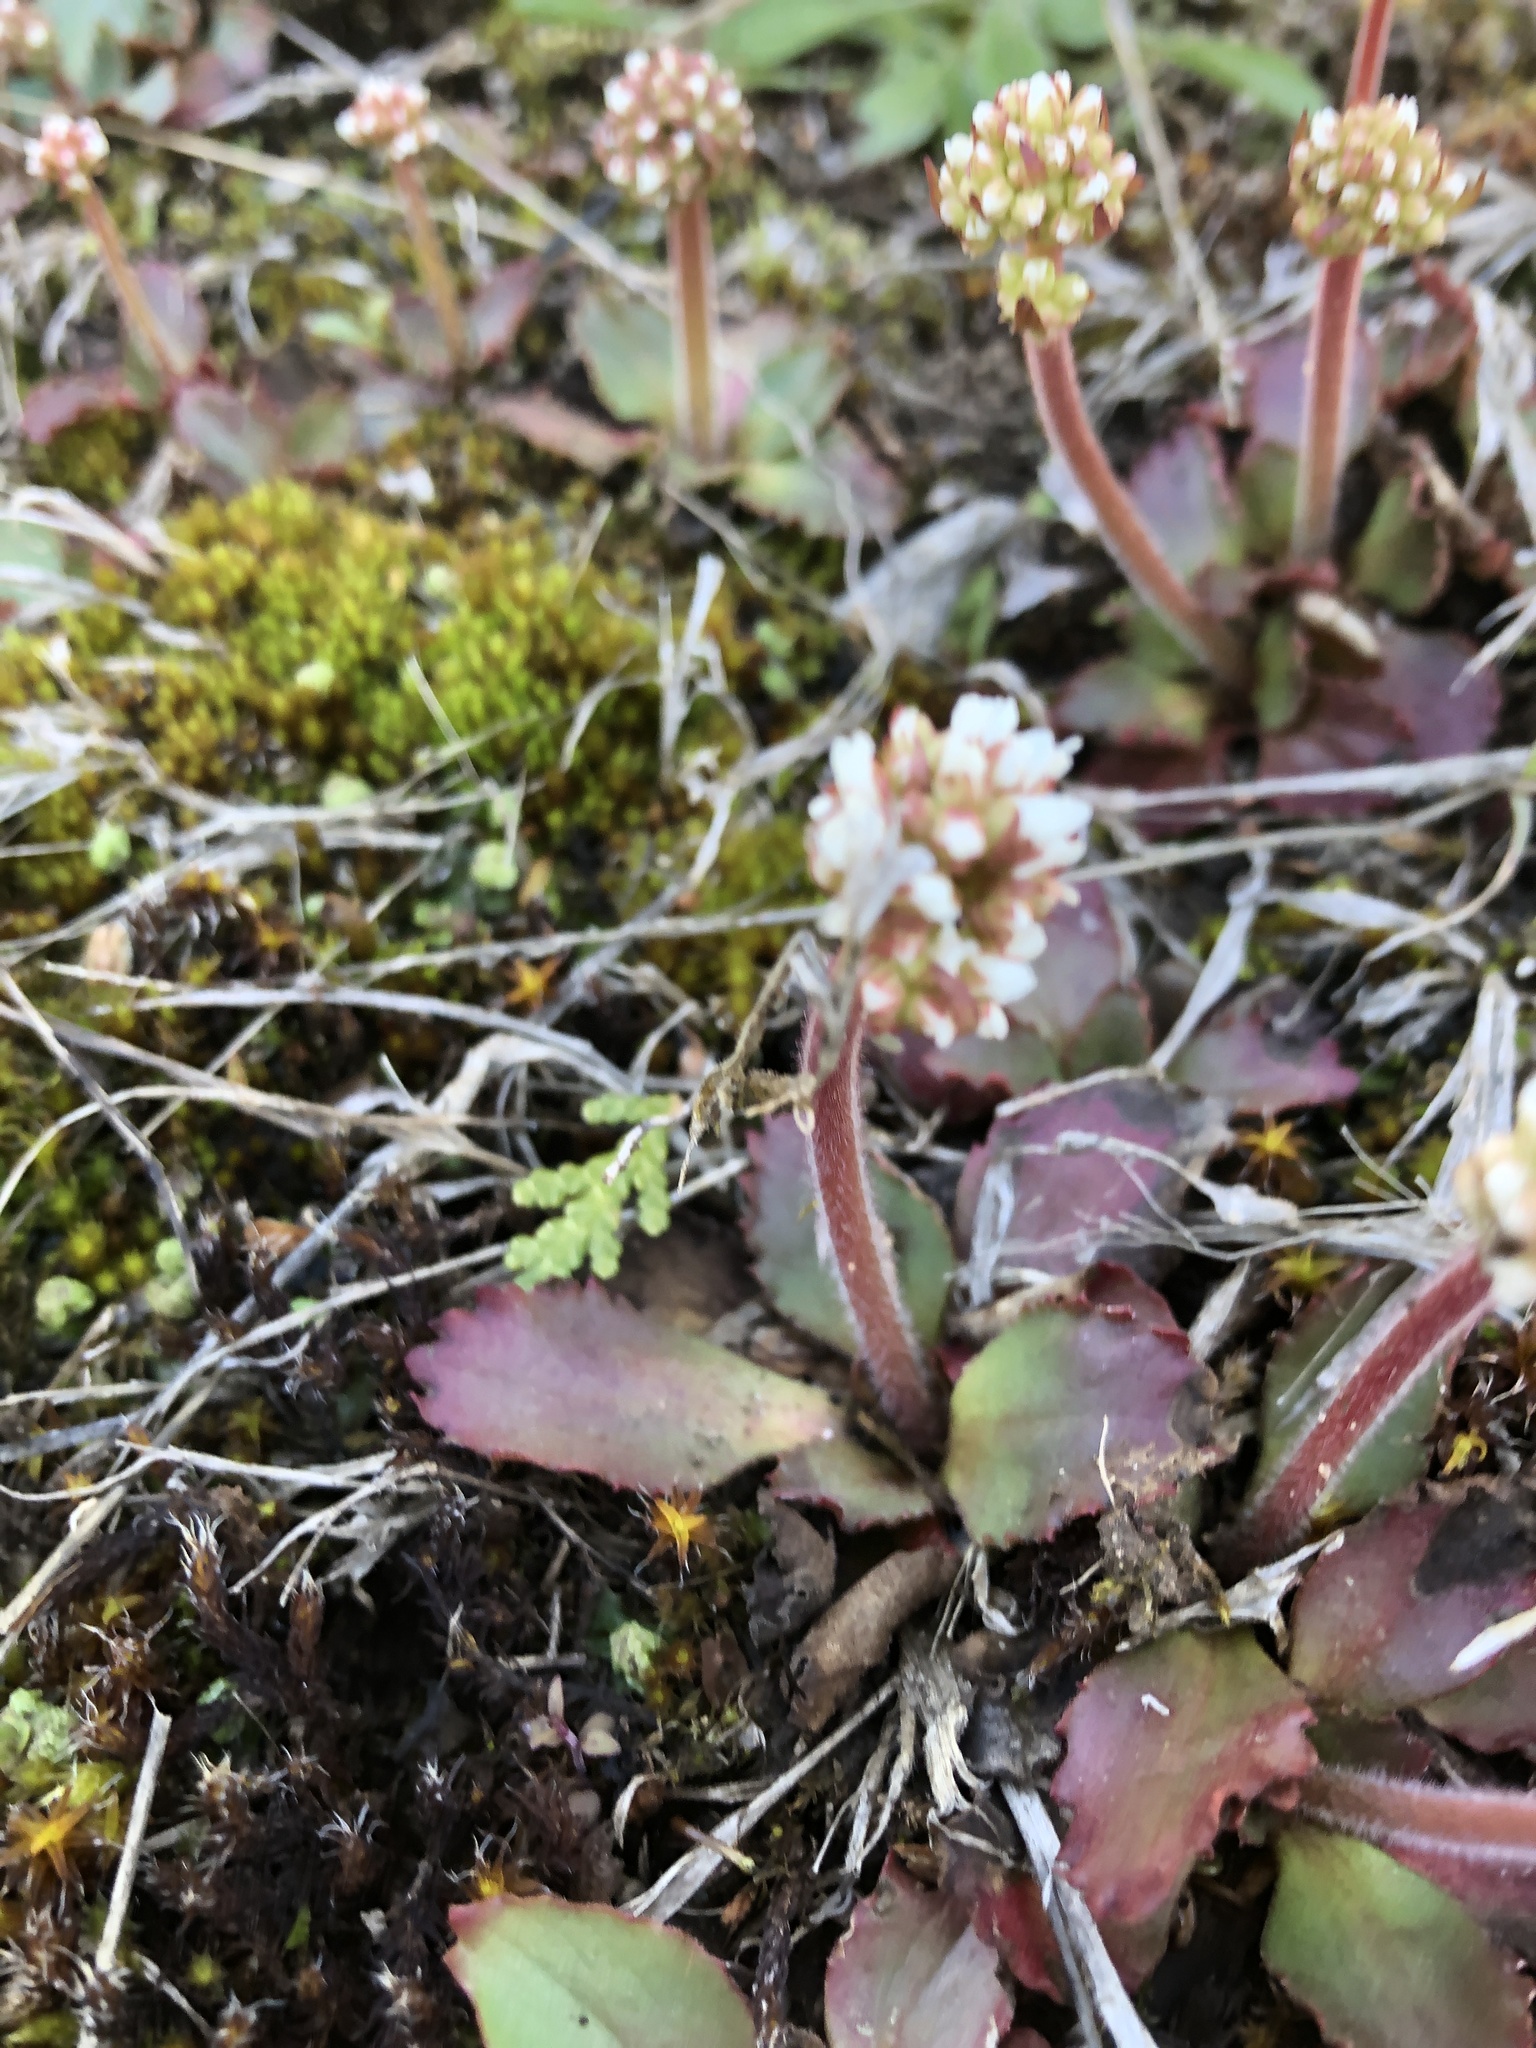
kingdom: Plantae
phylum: Tracheophyta
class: Magnoliopsida
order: Saxifragales
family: Saxifragaceae
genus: Micranthes
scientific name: Micranthes virginiensis
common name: Early saxifrage
